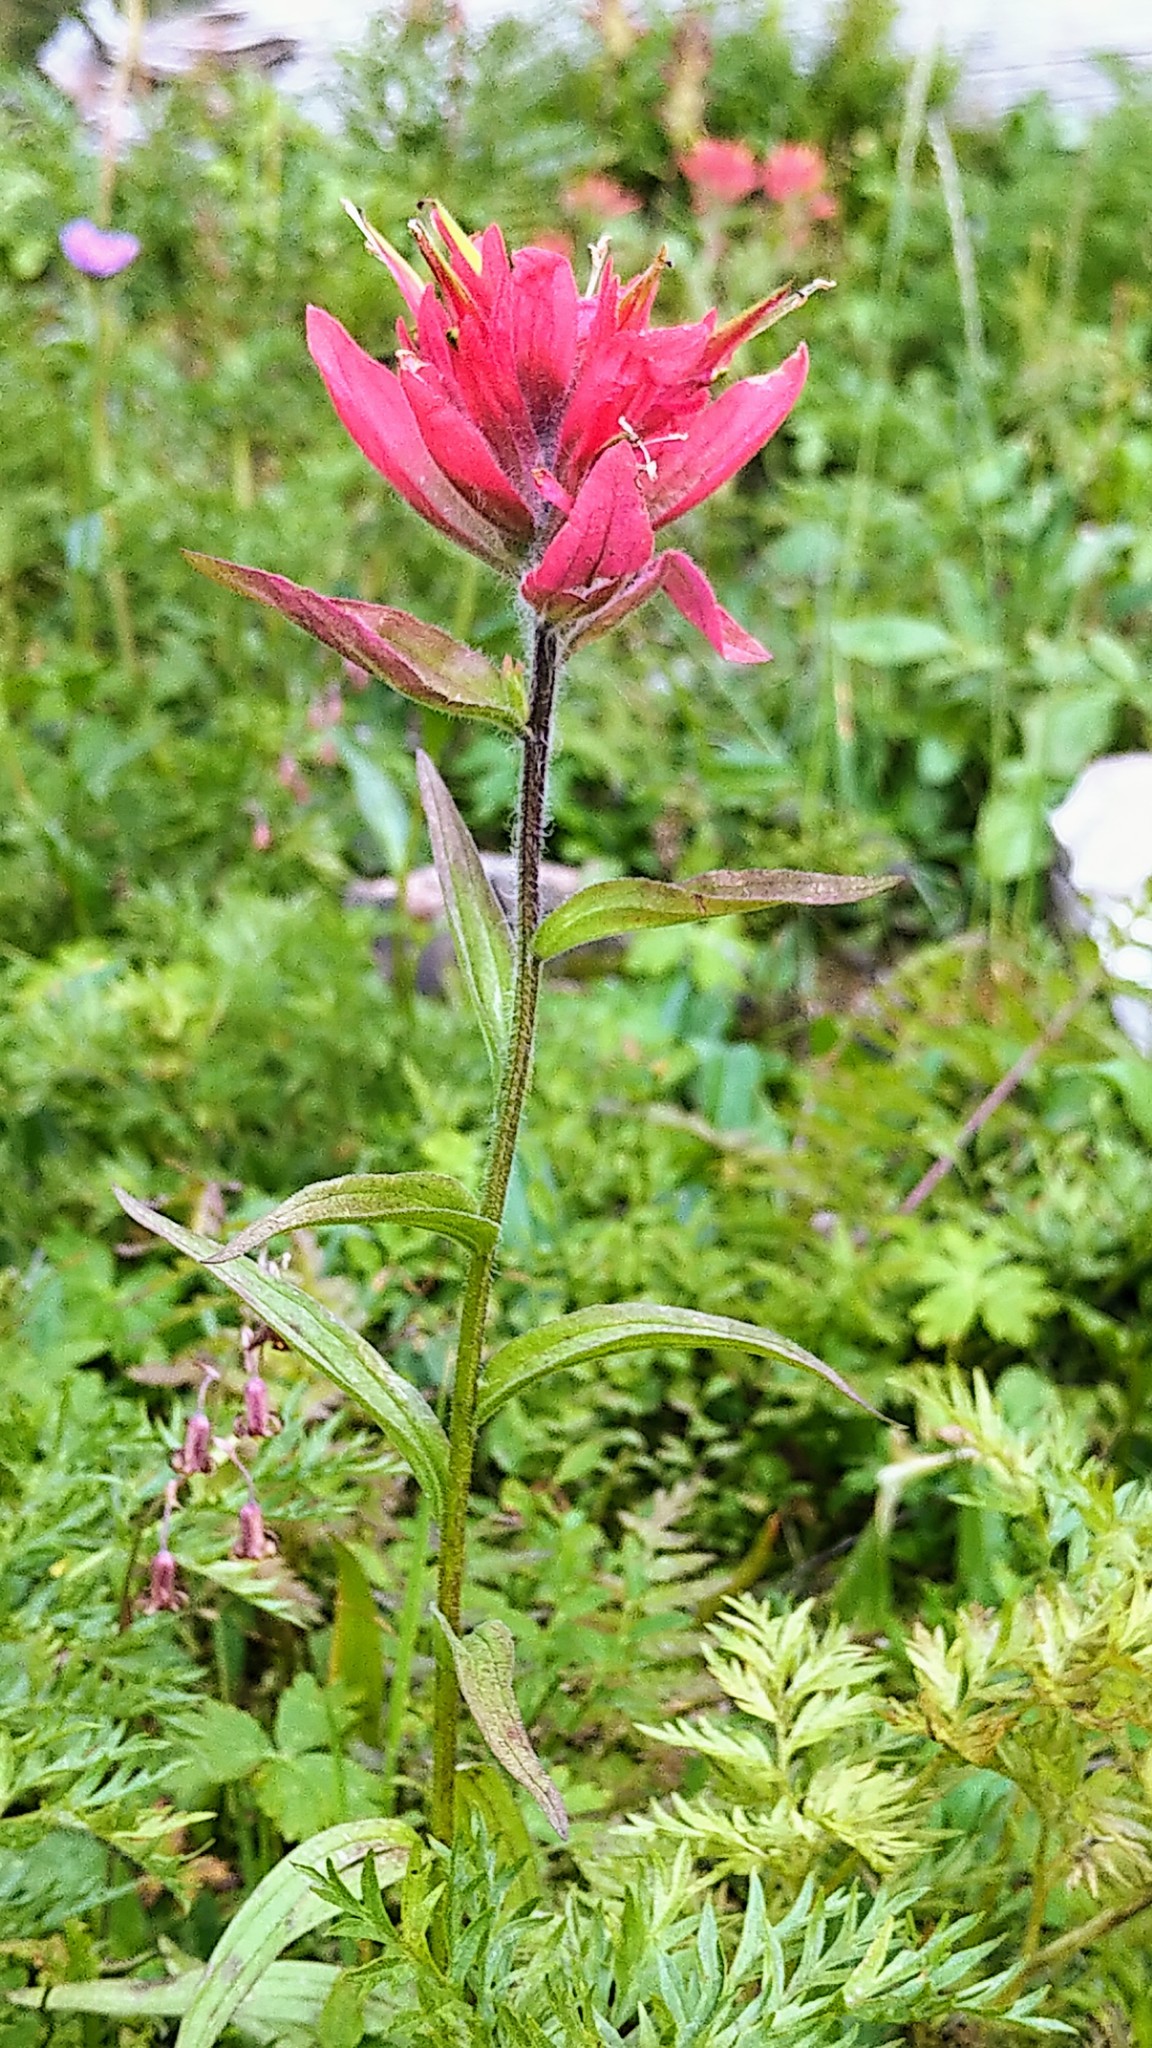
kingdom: Plantae
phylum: Tracheophyta
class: Magnoliopsida
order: Lamiales
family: Orobanchaceae
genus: Castilleja
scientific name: Castilleja rhexifolia
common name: Rocky mountain paintbrush
